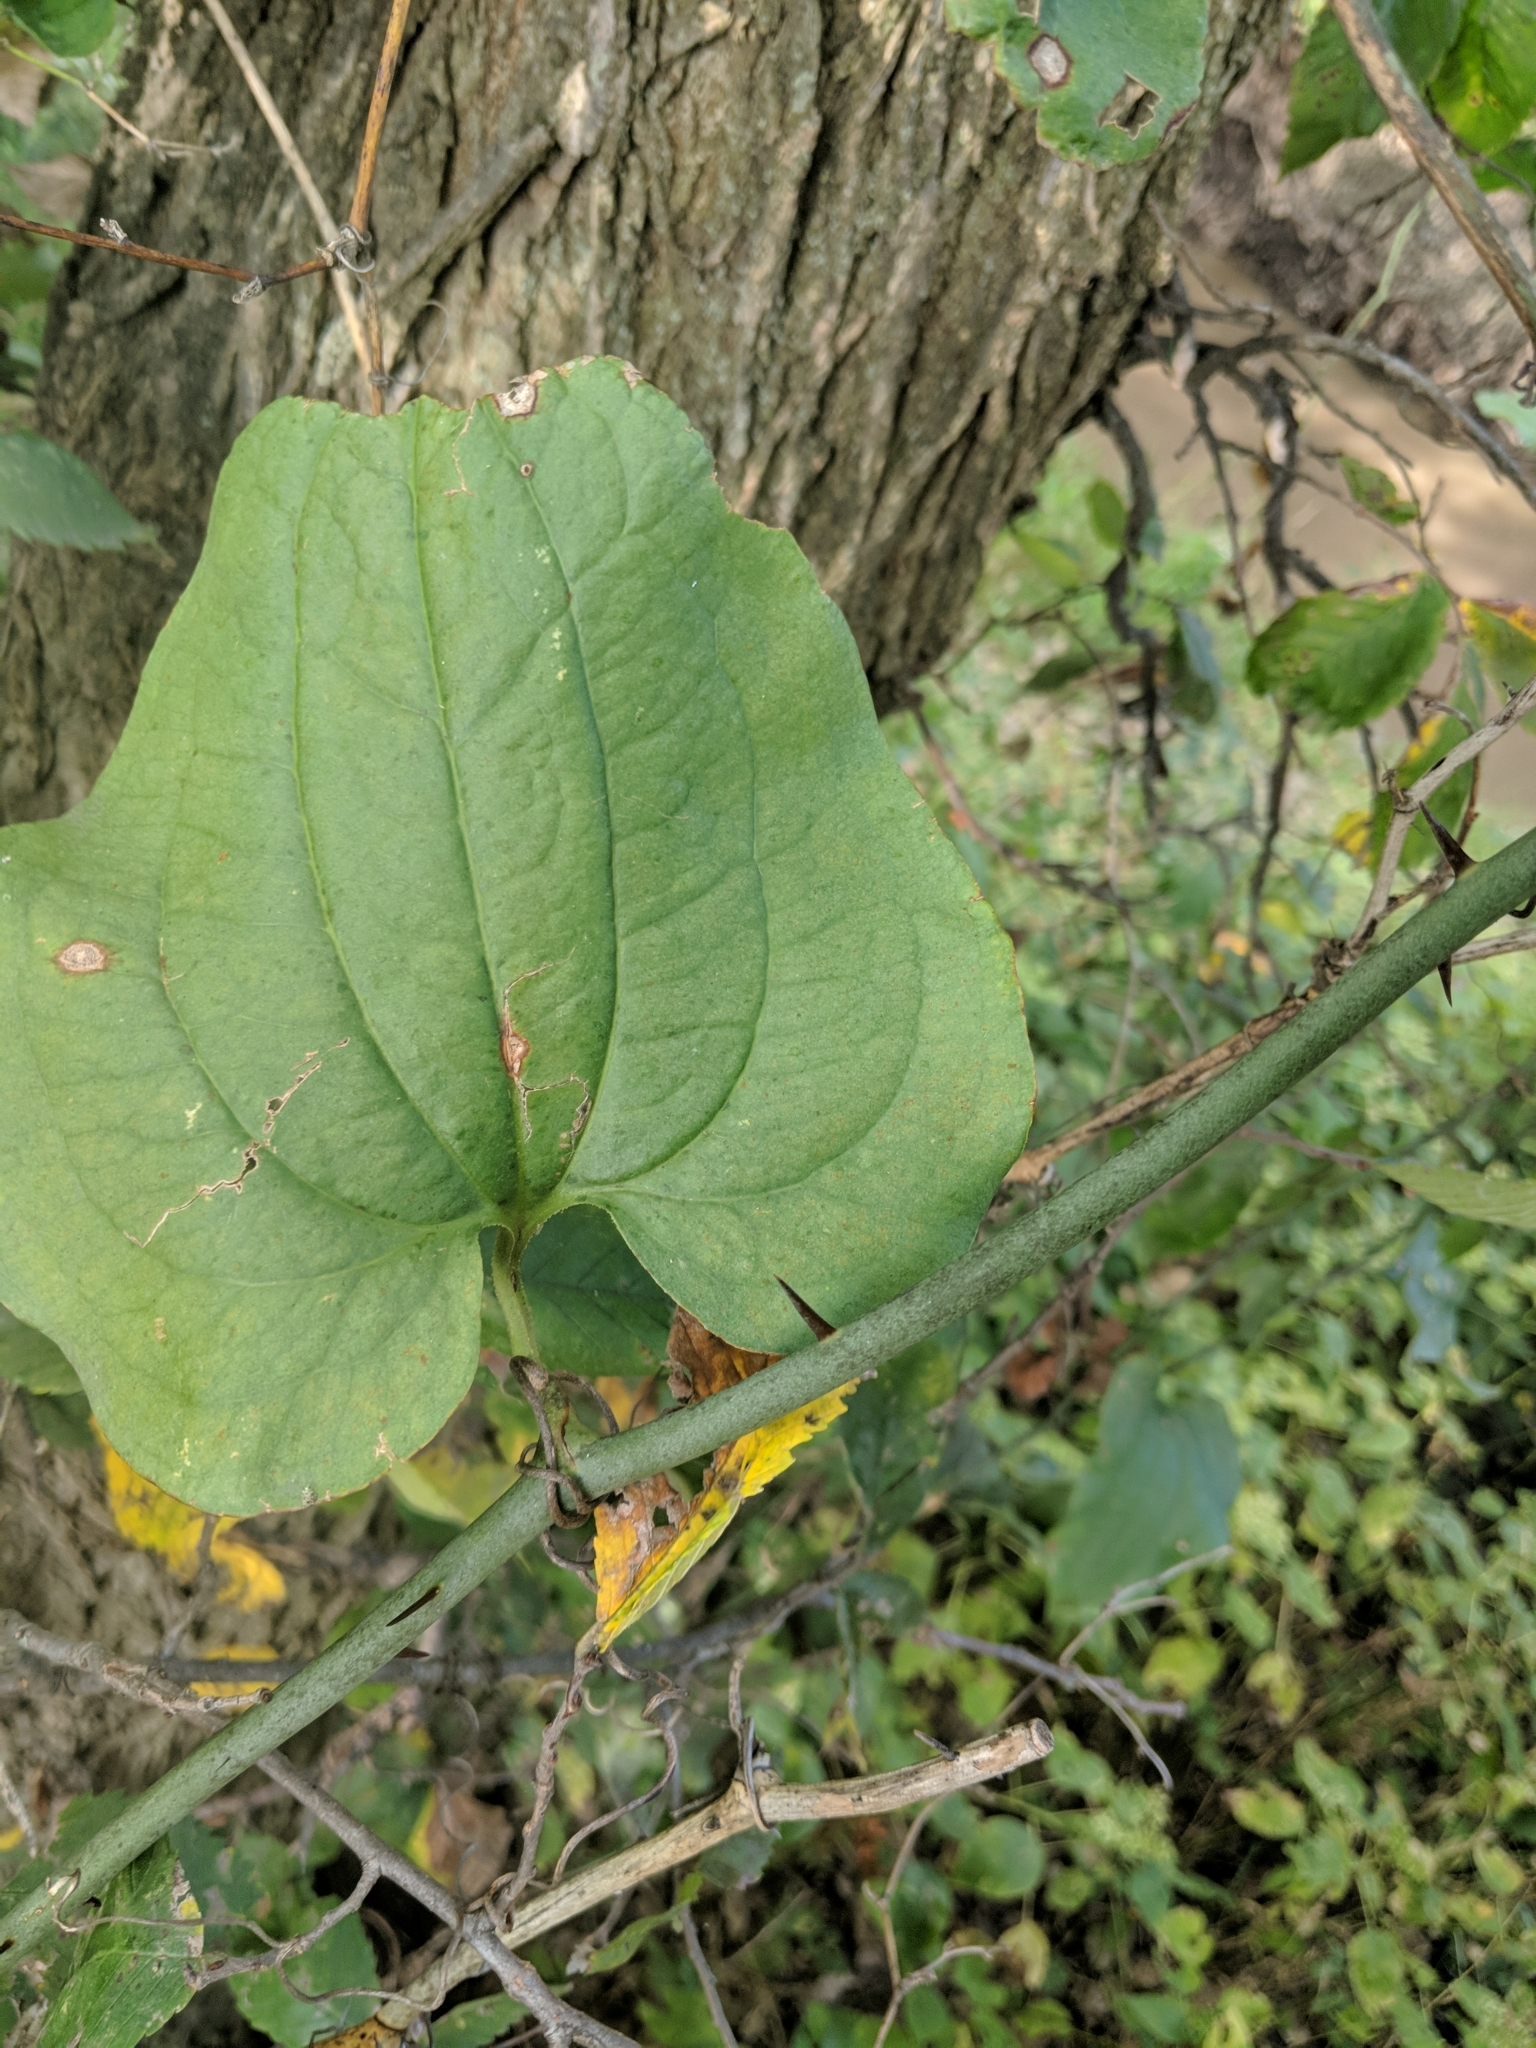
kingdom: Plantae
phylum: Tracheophyta
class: Liliopsida
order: Liliales
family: Smilacaceae
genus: Smilax
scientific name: Smilax tamnoides
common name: Hellfetter
